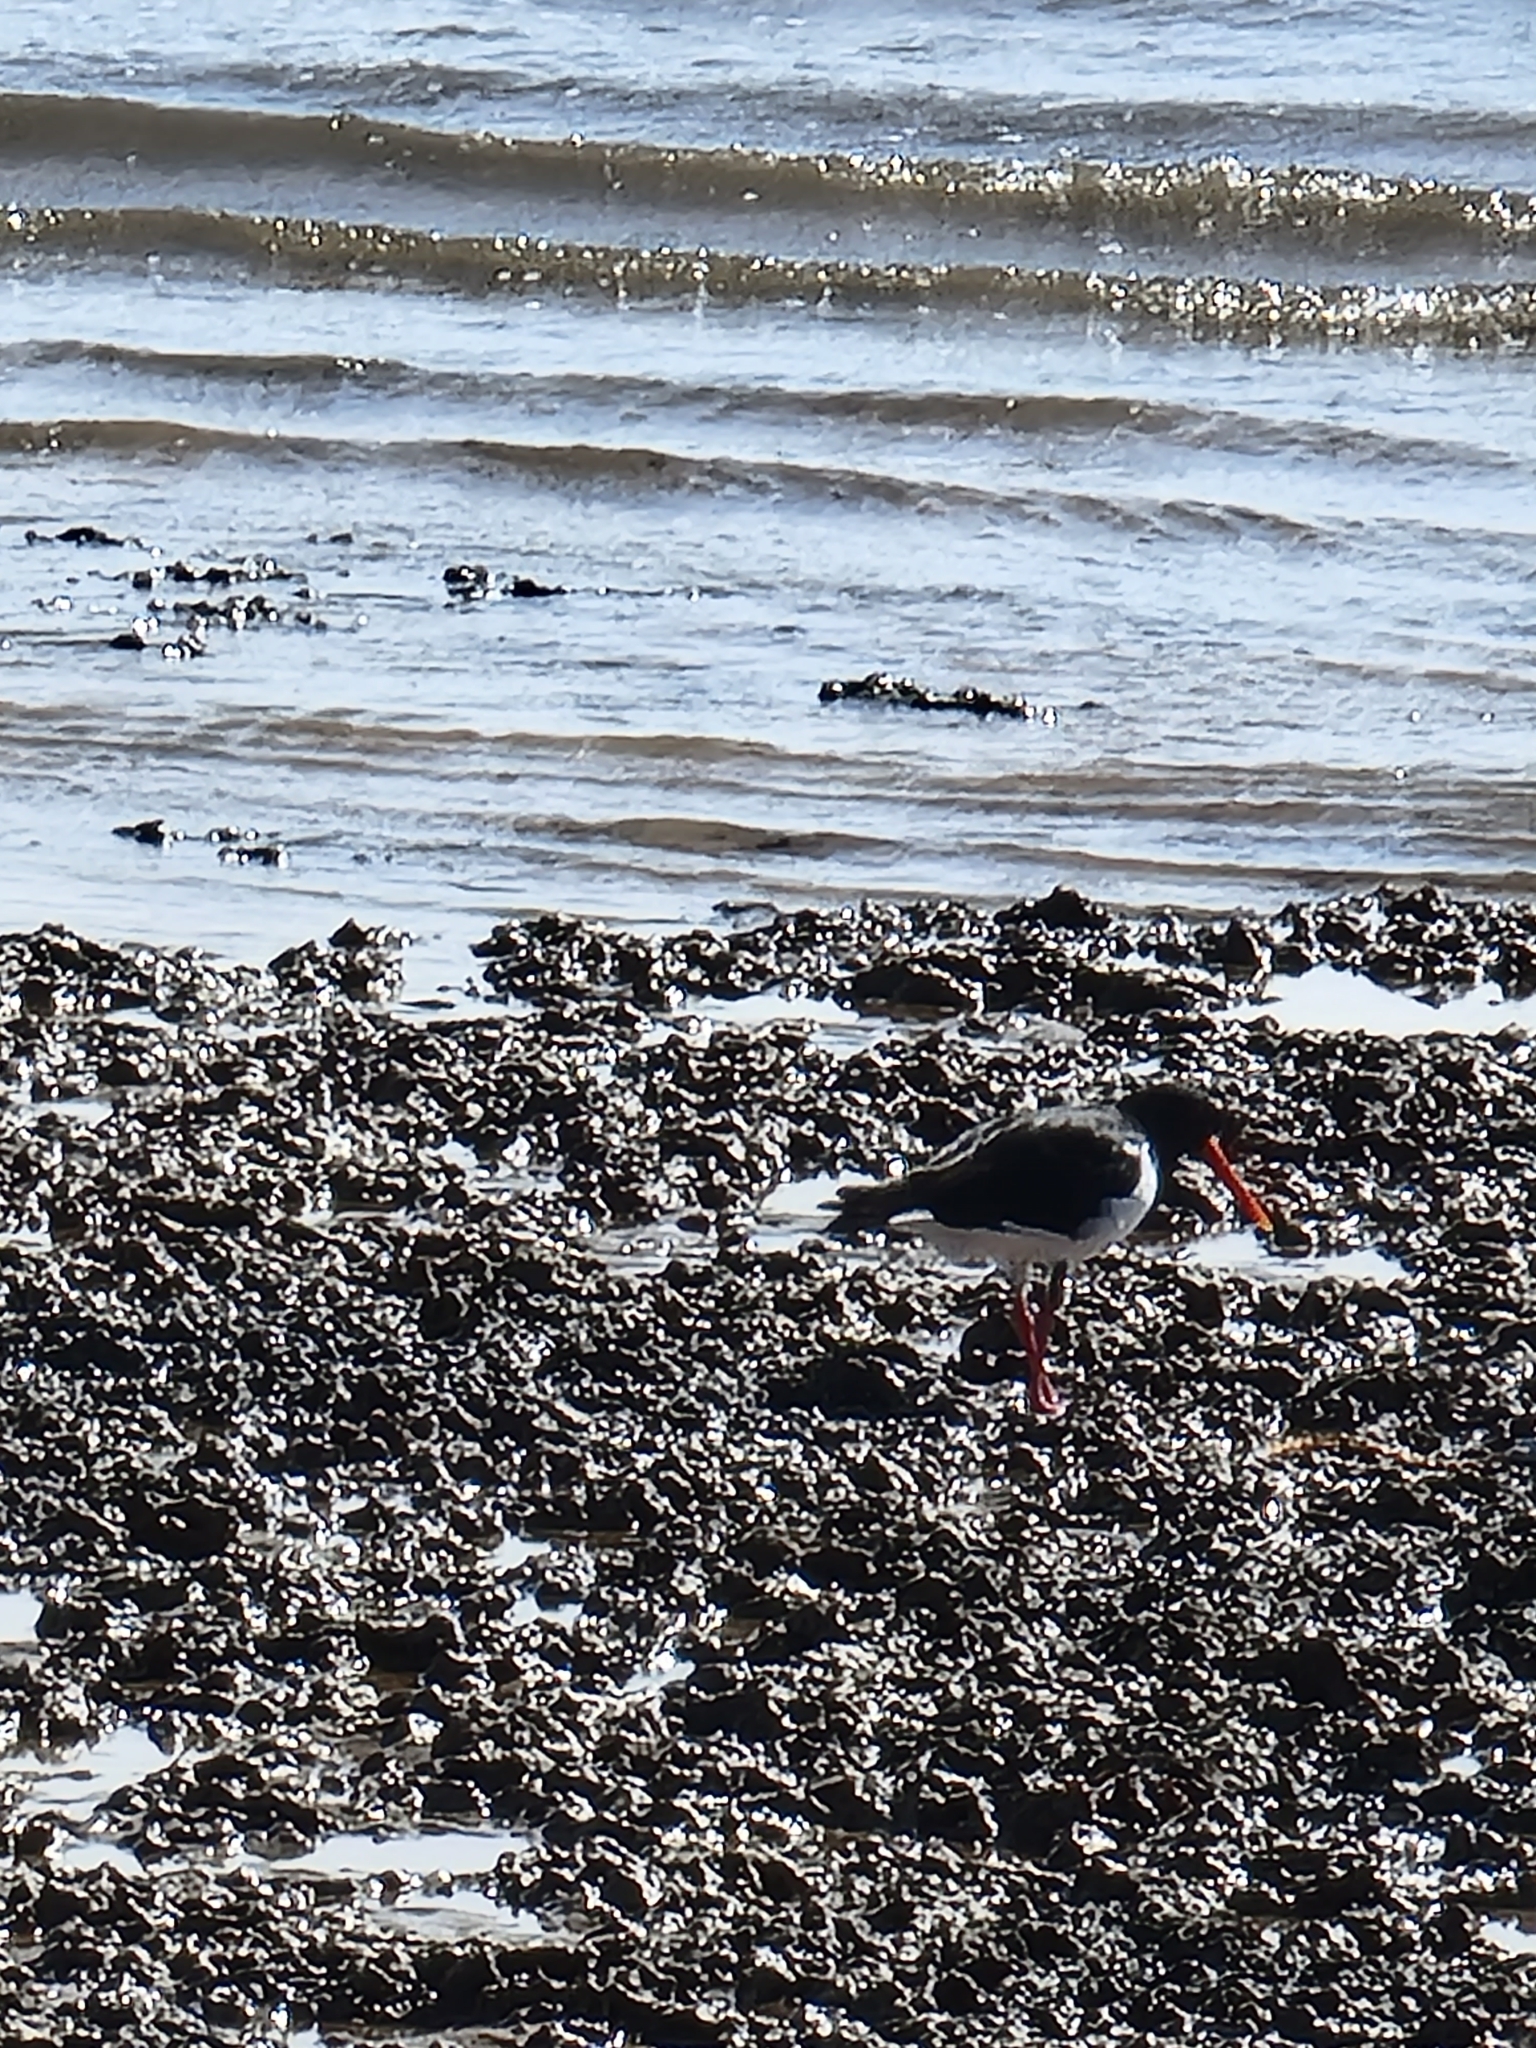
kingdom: Animalia
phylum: Chordata
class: Aves
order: Charadriiformes
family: Haematopodidae
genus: Haematopus
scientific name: Haematopus longirostris
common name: Pied oystercatcher
